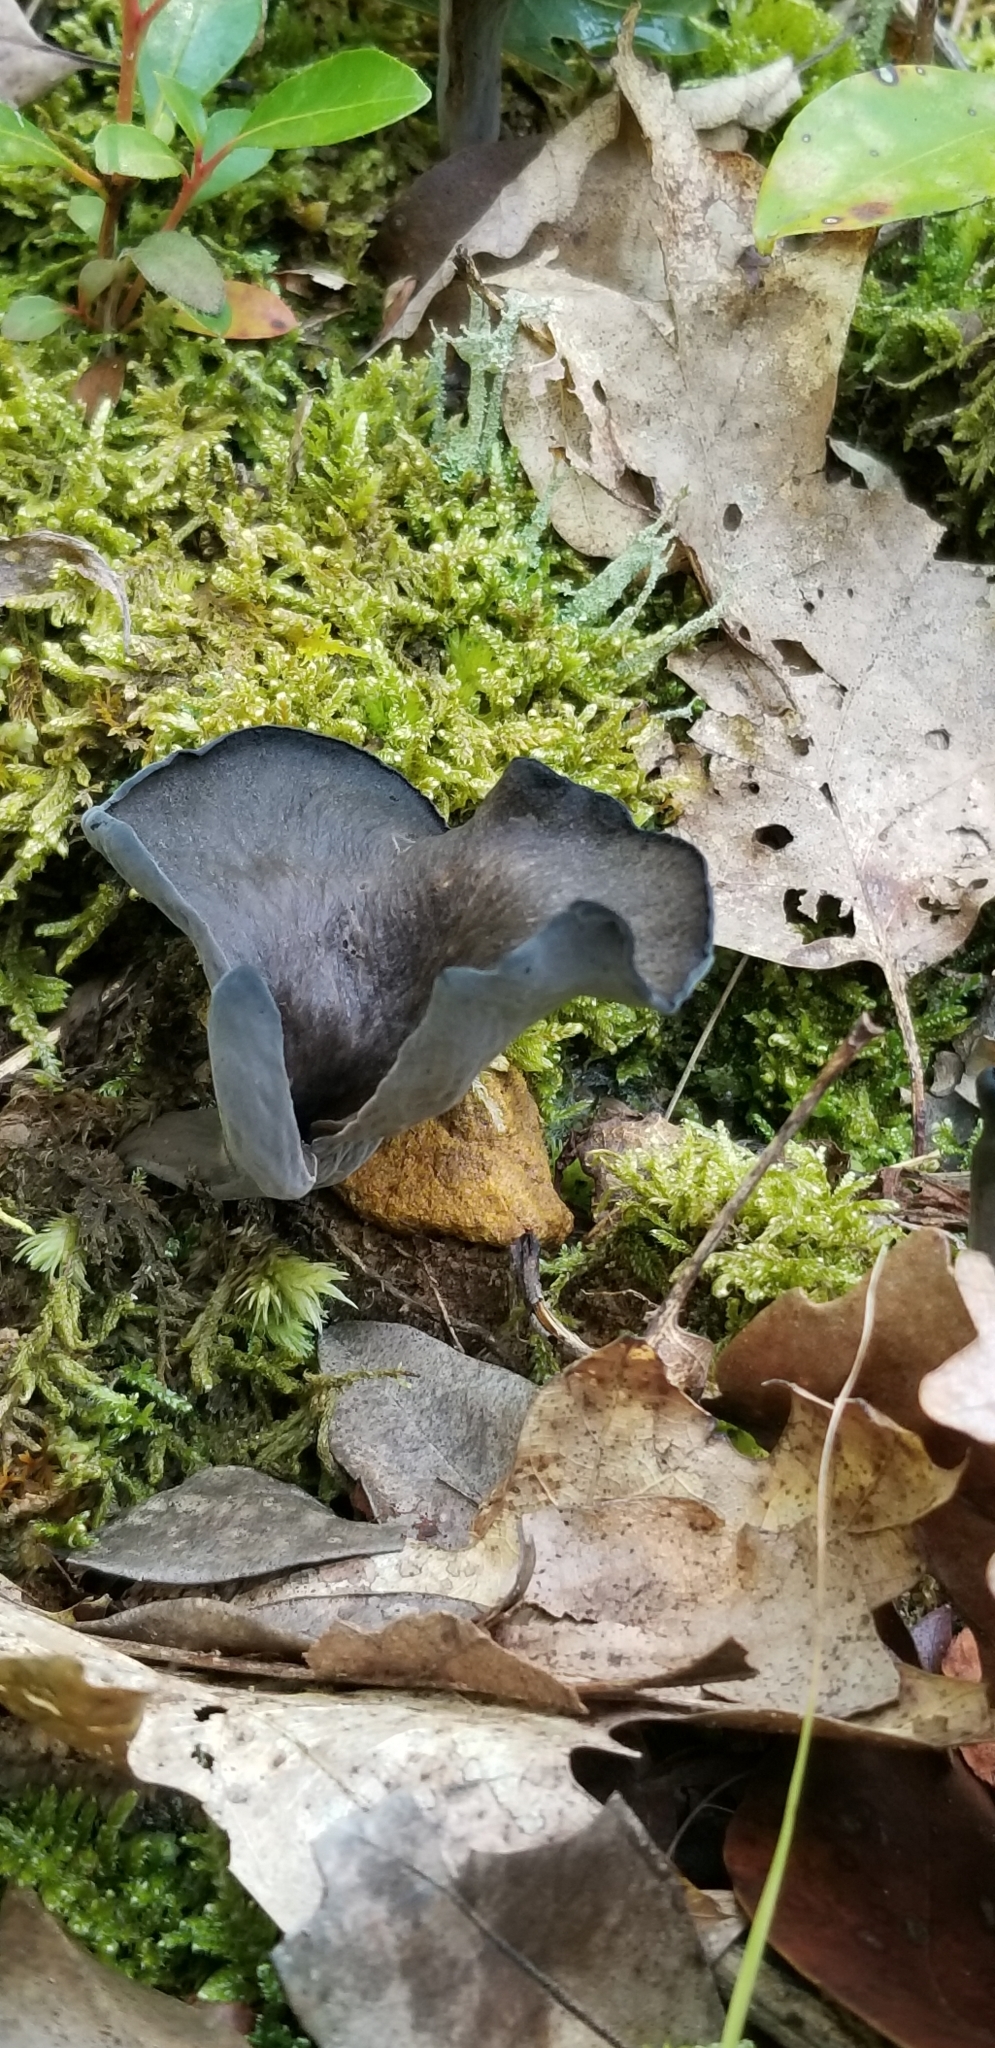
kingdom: Fungi
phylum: Basidiomycota
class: Agaricomycetes
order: Cantharellales
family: Hydnaceae
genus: Craterellus
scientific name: Craterellus cornucopioides
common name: Horn of plenty
